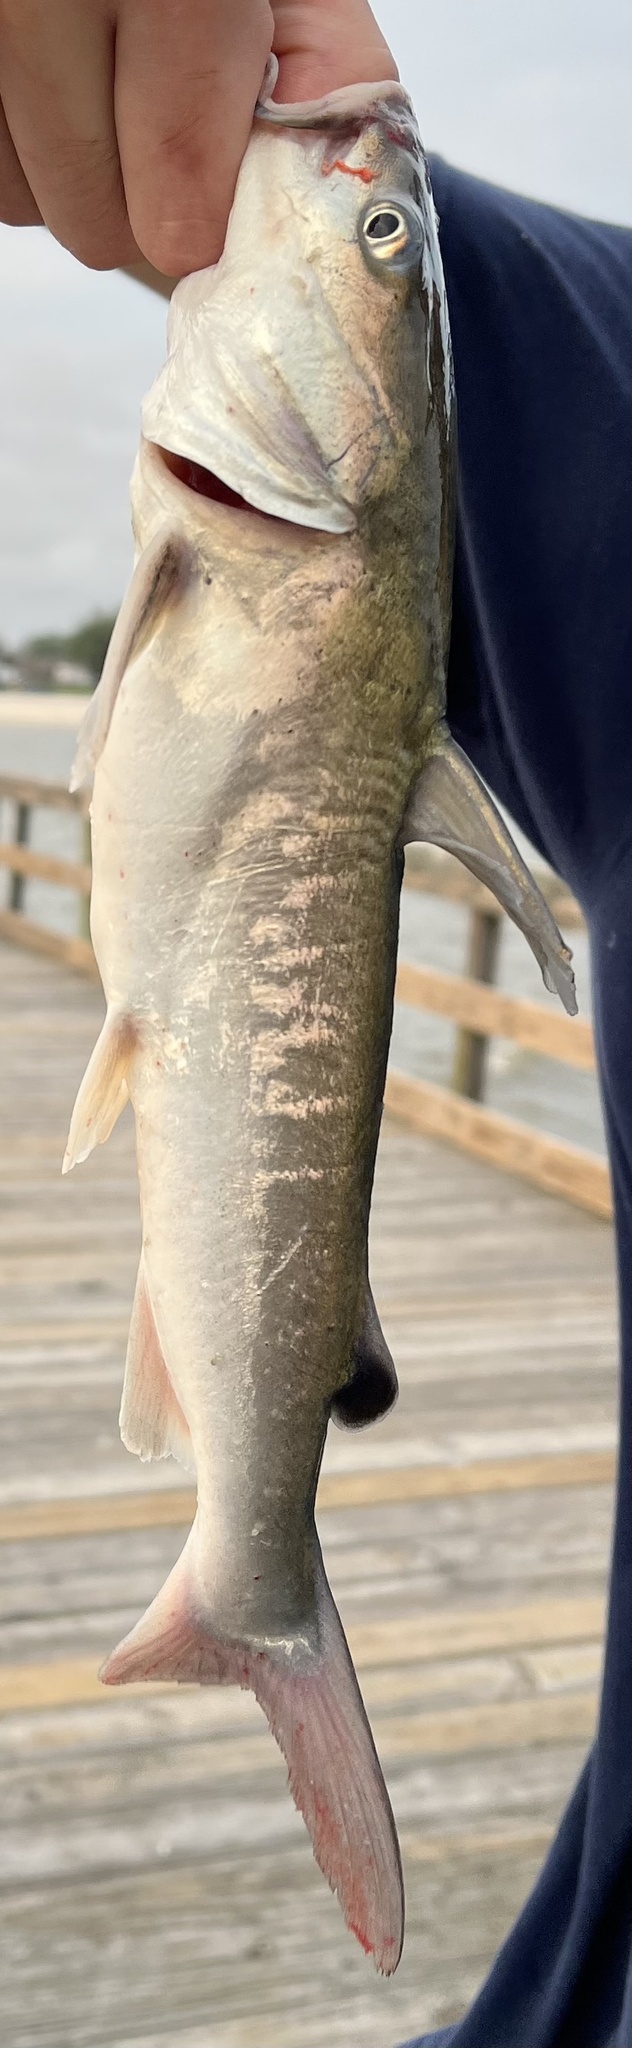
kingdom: Animalia
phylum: Chordata
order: Siluriformes
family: Ariidae
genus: Ariopsis
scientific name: Ariopsis felis
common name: Hardhead catfish
